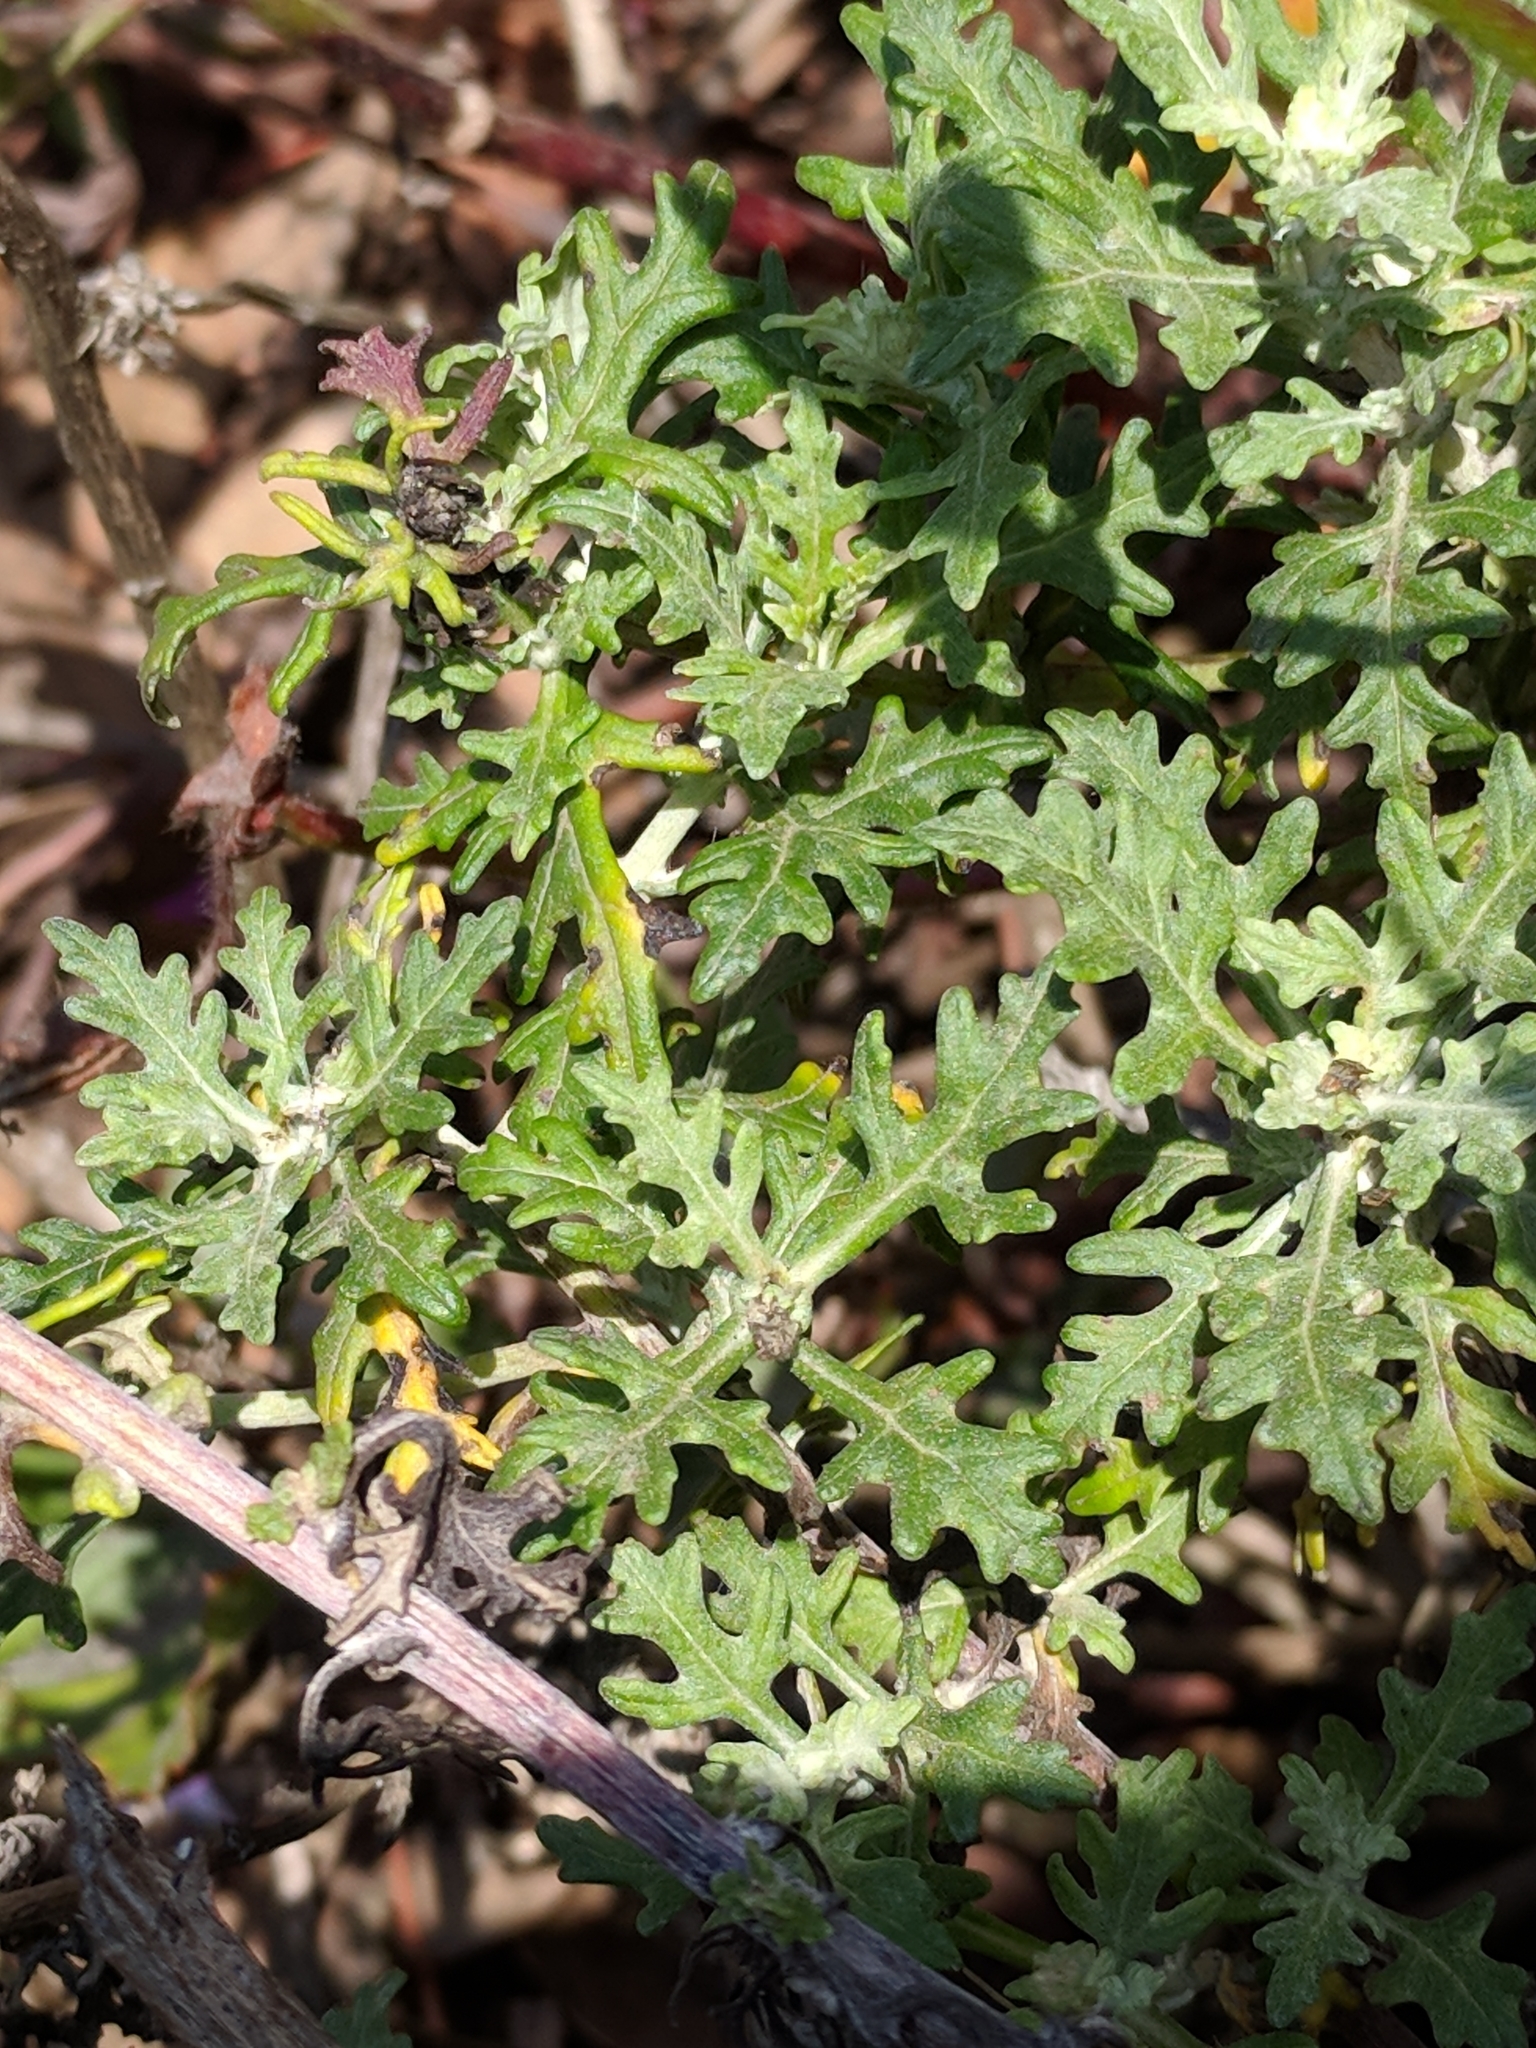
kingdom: Plantae
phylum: Tracheophyta
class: Magnoliopsida
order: Asterales
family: Asteraceae
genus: Eriophyllum
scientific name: Eriophyllum staechadifolium
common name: Lizardtail
